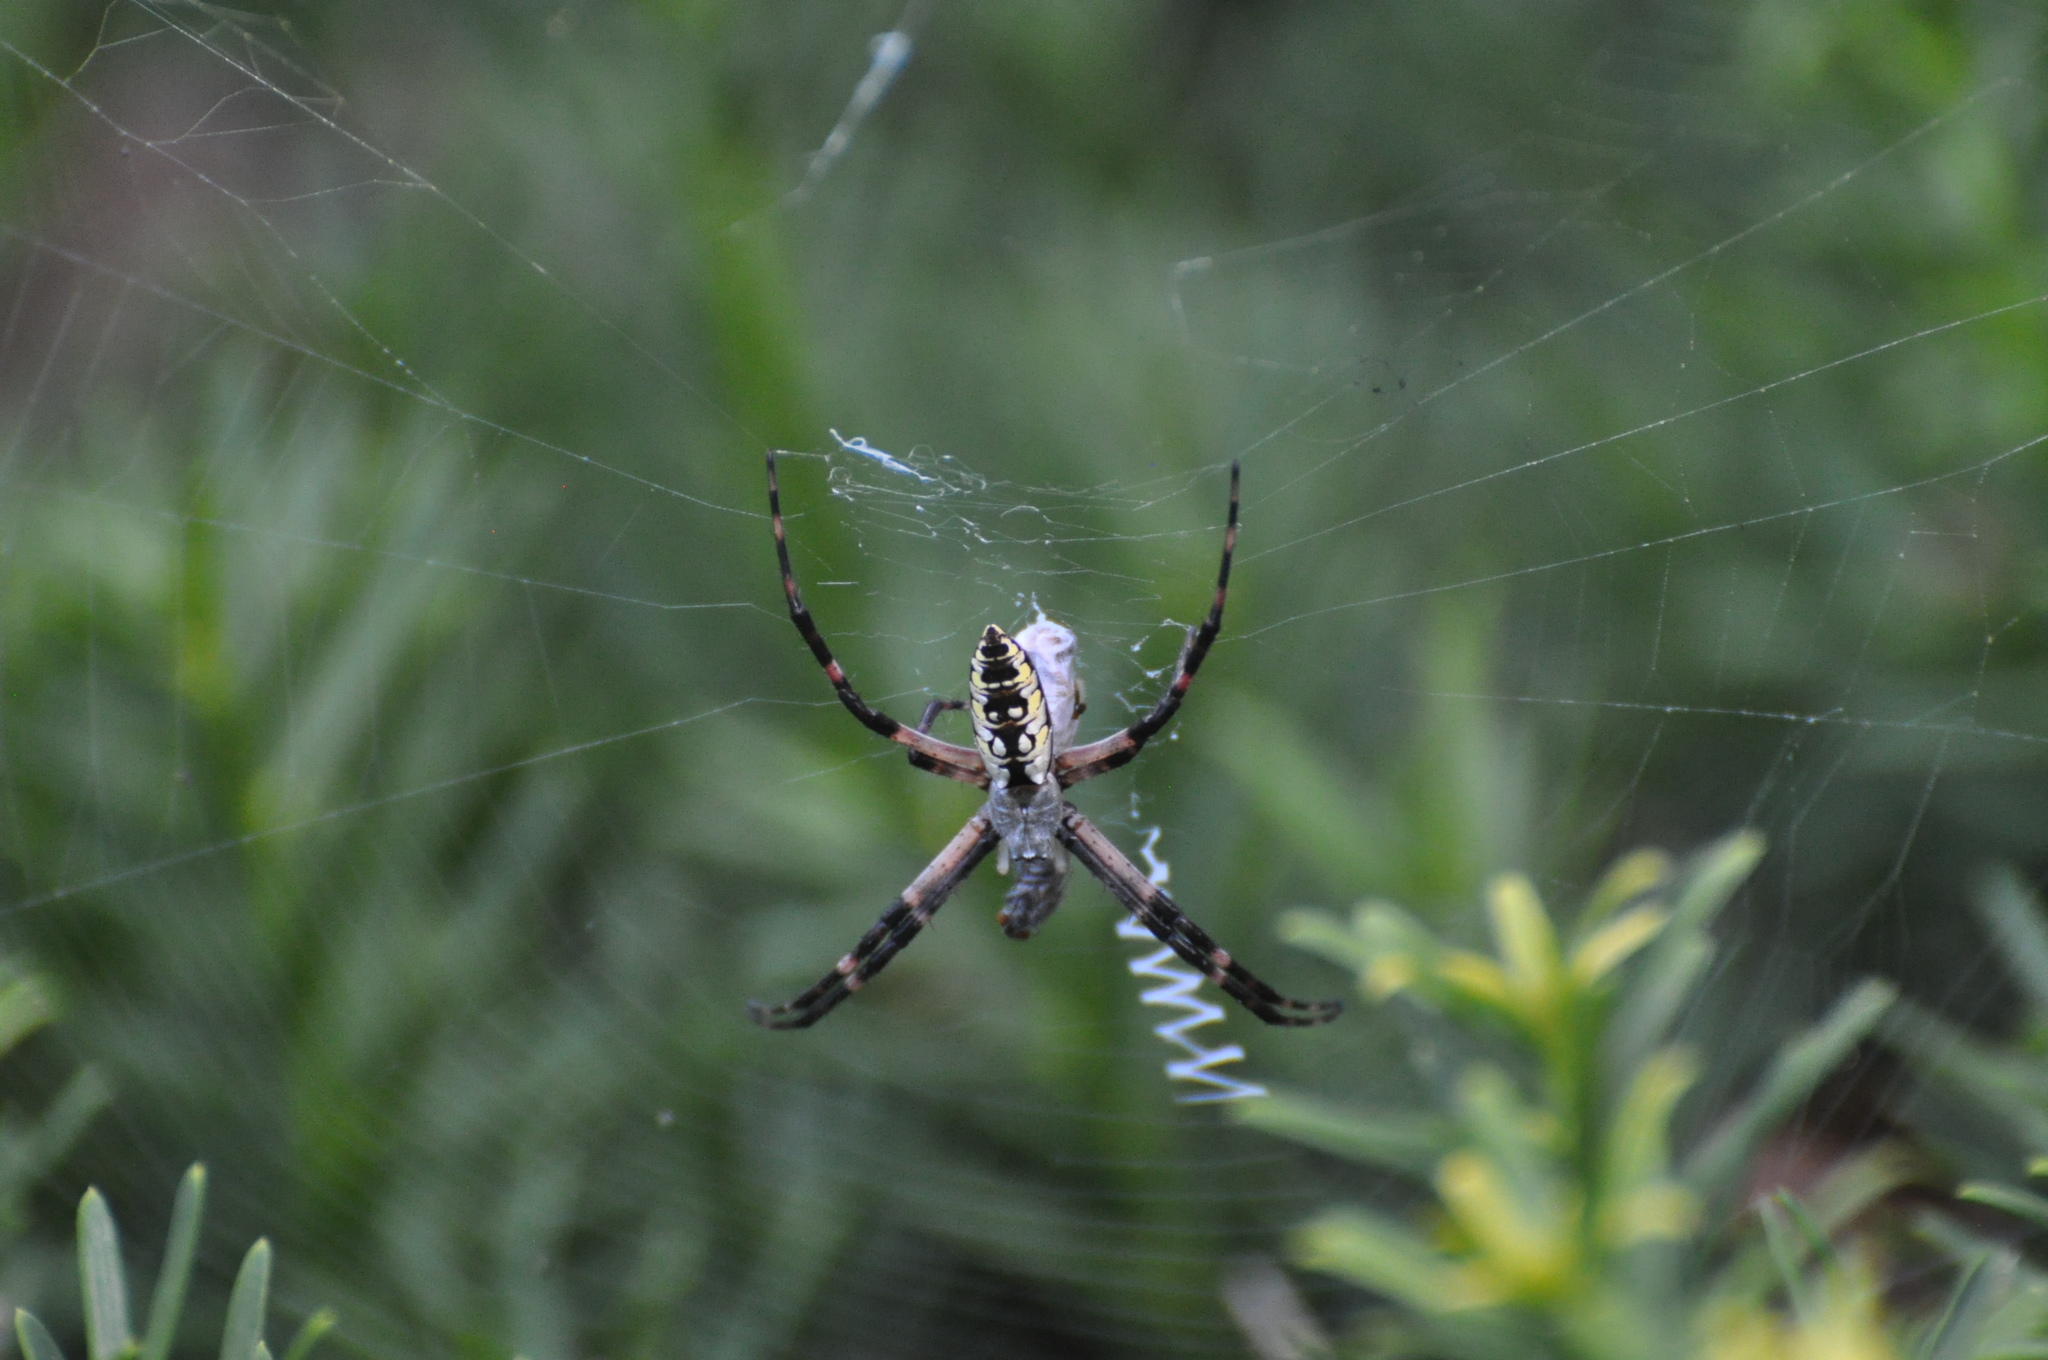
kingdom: Animalia
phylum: Arthropoda
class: Arachnida
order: Araneae
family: Araneidae
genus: Argiope
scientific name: Argiope aurantia
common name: Orb weavers
